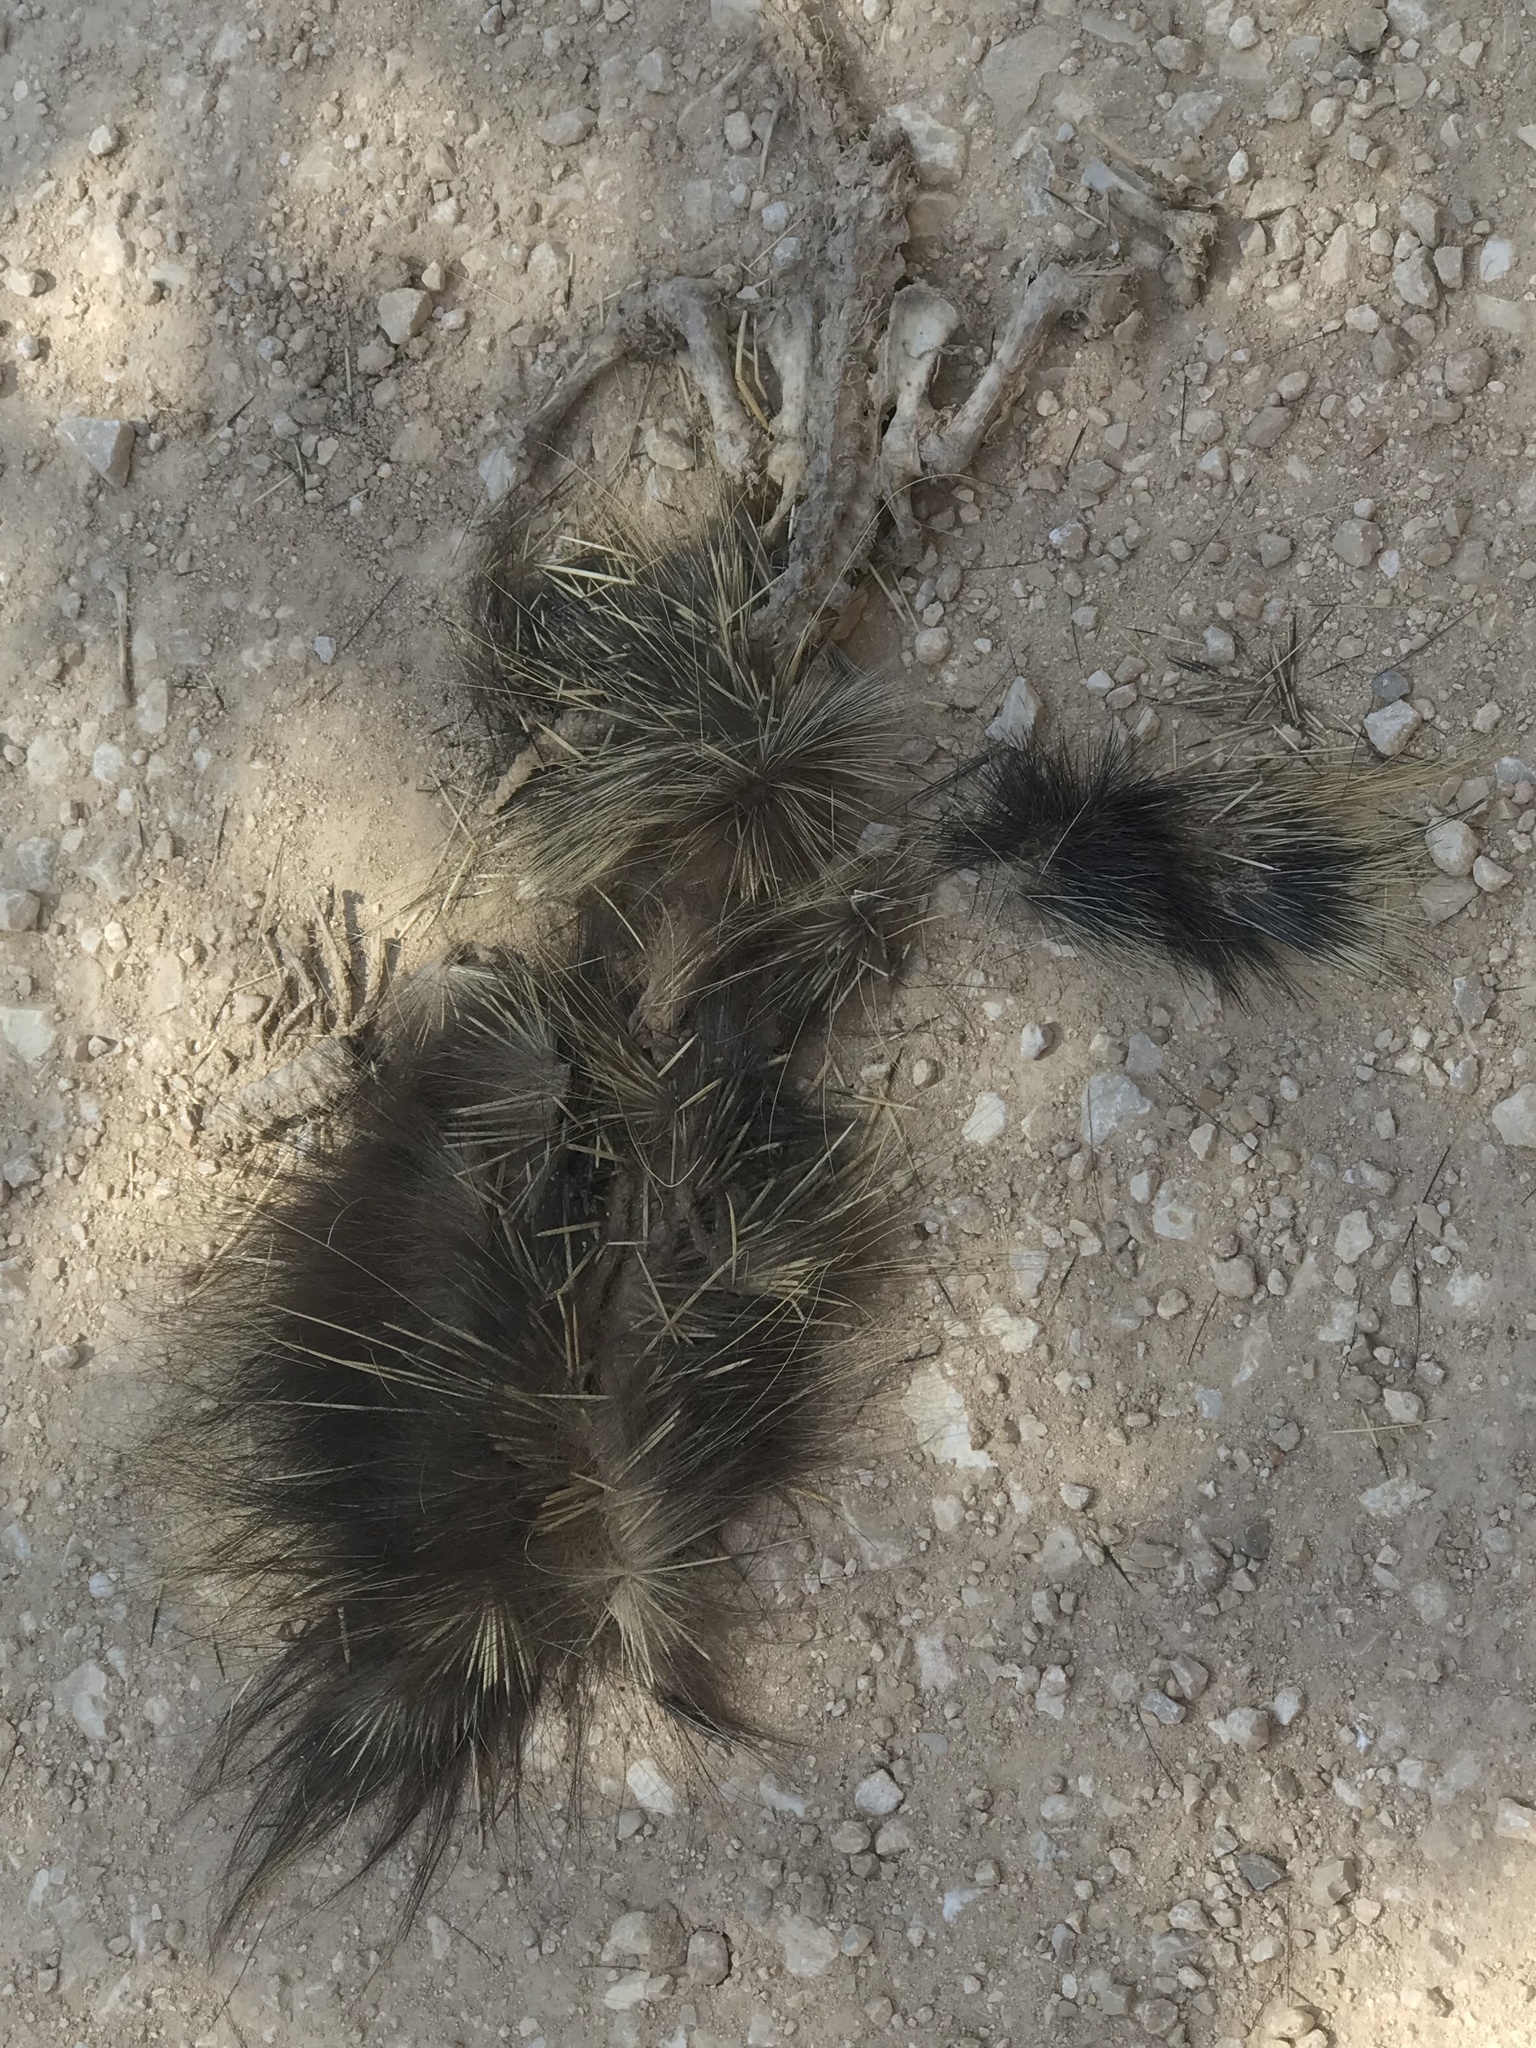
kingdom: Animalia
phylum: Chordata
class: Mammalia
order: Rodentia
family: Erethizontidae
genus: Erethizon
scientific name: Erethizon dorsatus
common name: North american porcupine
